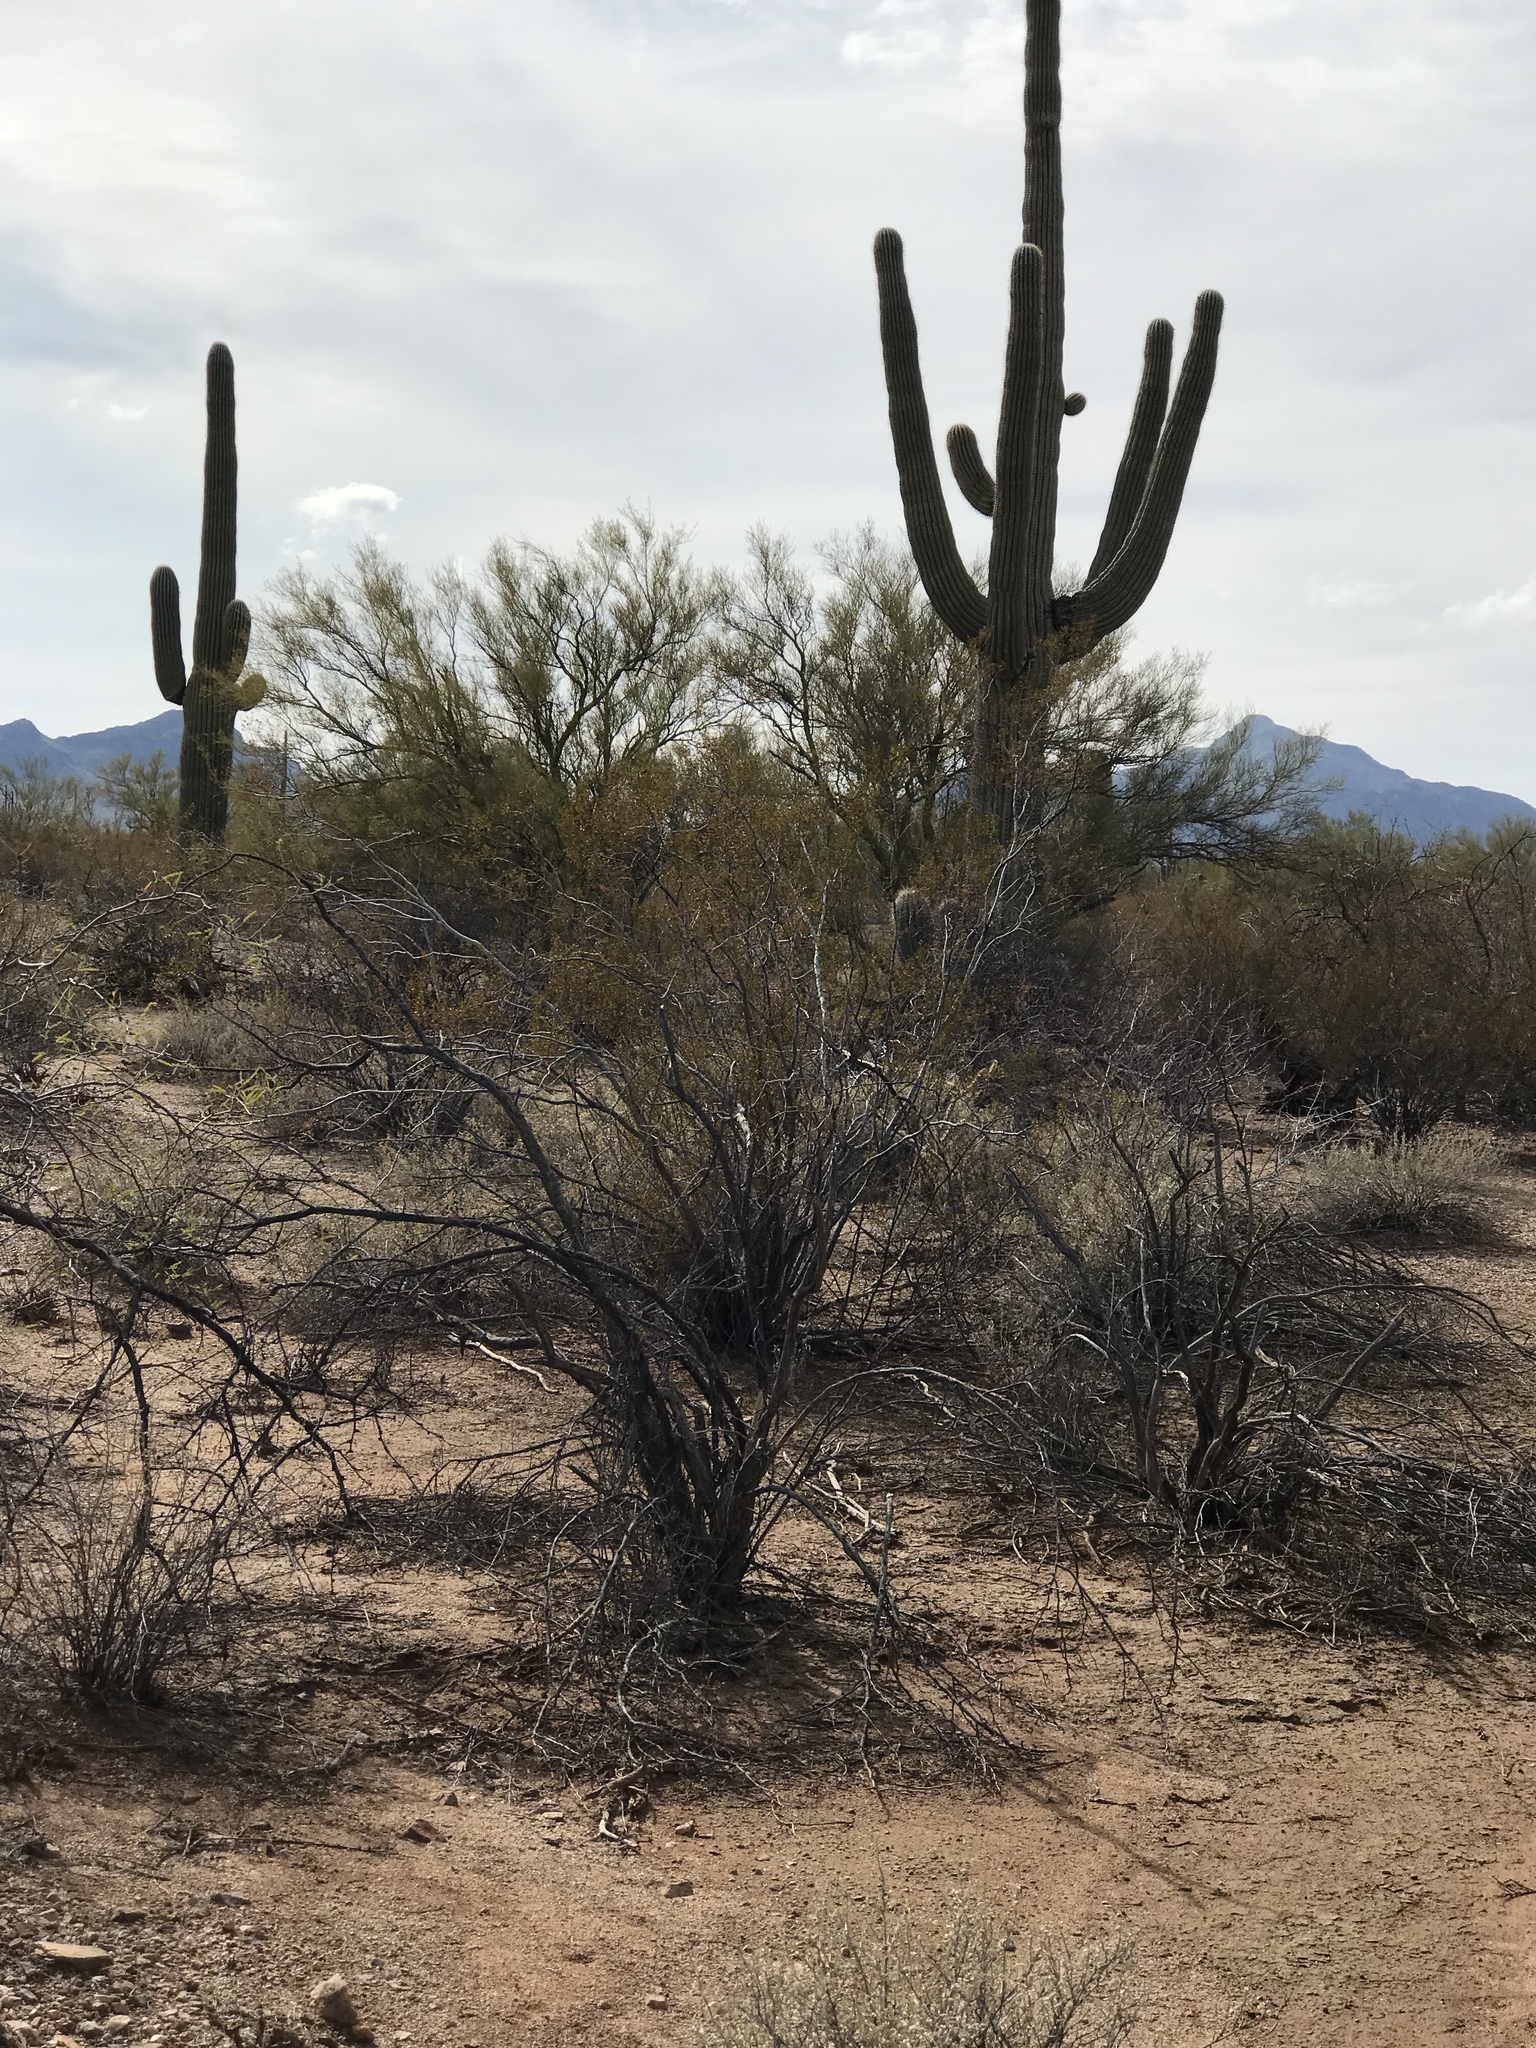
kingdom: Plantae
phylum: Tracheophyta
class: Magnoliopsida
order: Zygophyllales
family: Zygophyllaceae
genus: Larrea
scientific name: Larrea tridentata
